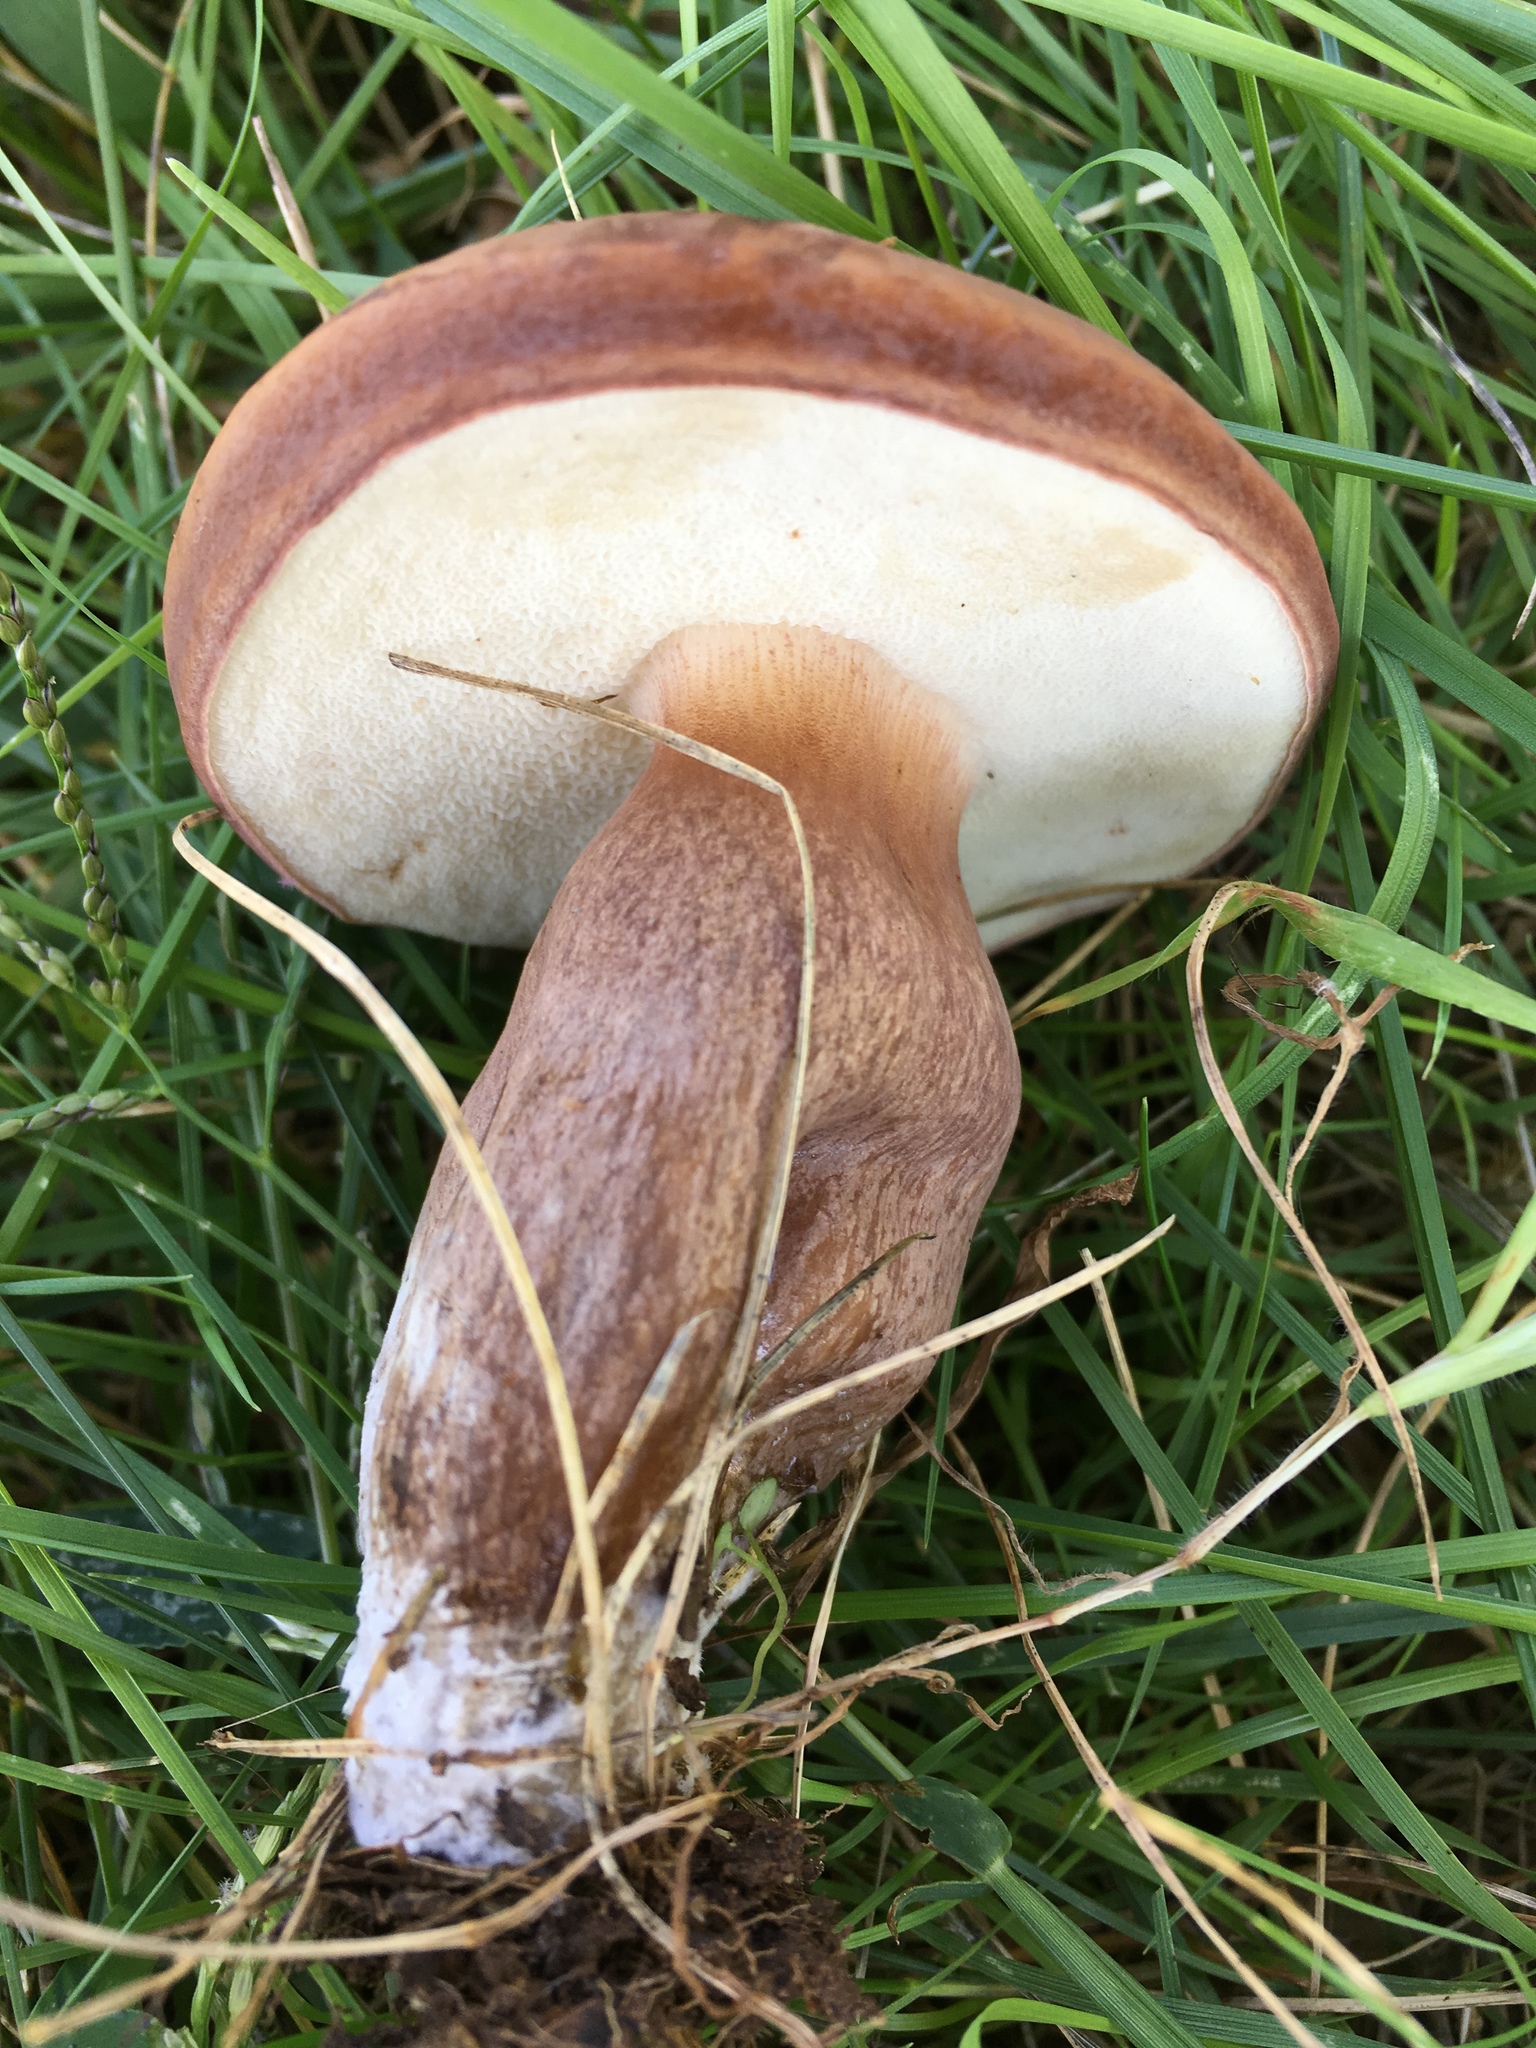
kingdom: Fungi
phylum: Basidiomycota
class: Agaricomycetes
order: Boletales
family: Boletaceae
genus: Tylopilus
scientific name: Tylopilus ferrugineus
